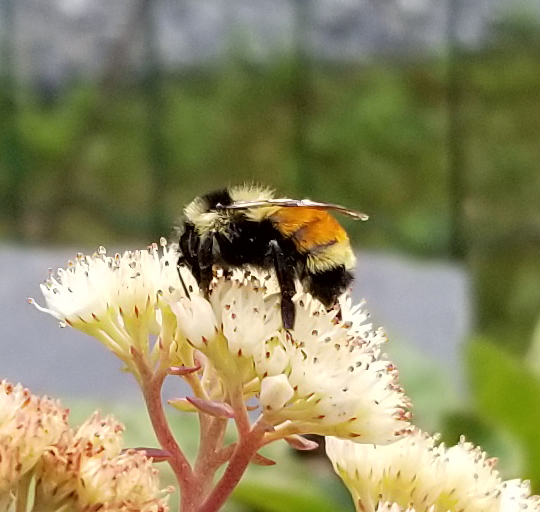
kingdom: Animalia
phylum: Arthropoda
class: Insecta
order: Hymenoptera
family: Apidae
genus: Bombus
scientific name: Bombus ternarius
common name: Tri-colored bumble bee
